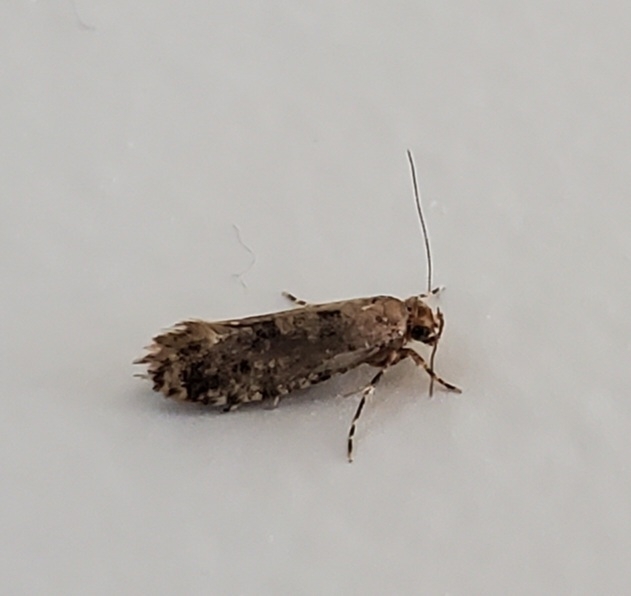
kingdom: Animalia
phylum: Arthropoda
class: Insecta
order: Lepidoptera
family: Tineidae
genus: Parochmastis
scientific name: Parochmastis hilderi
